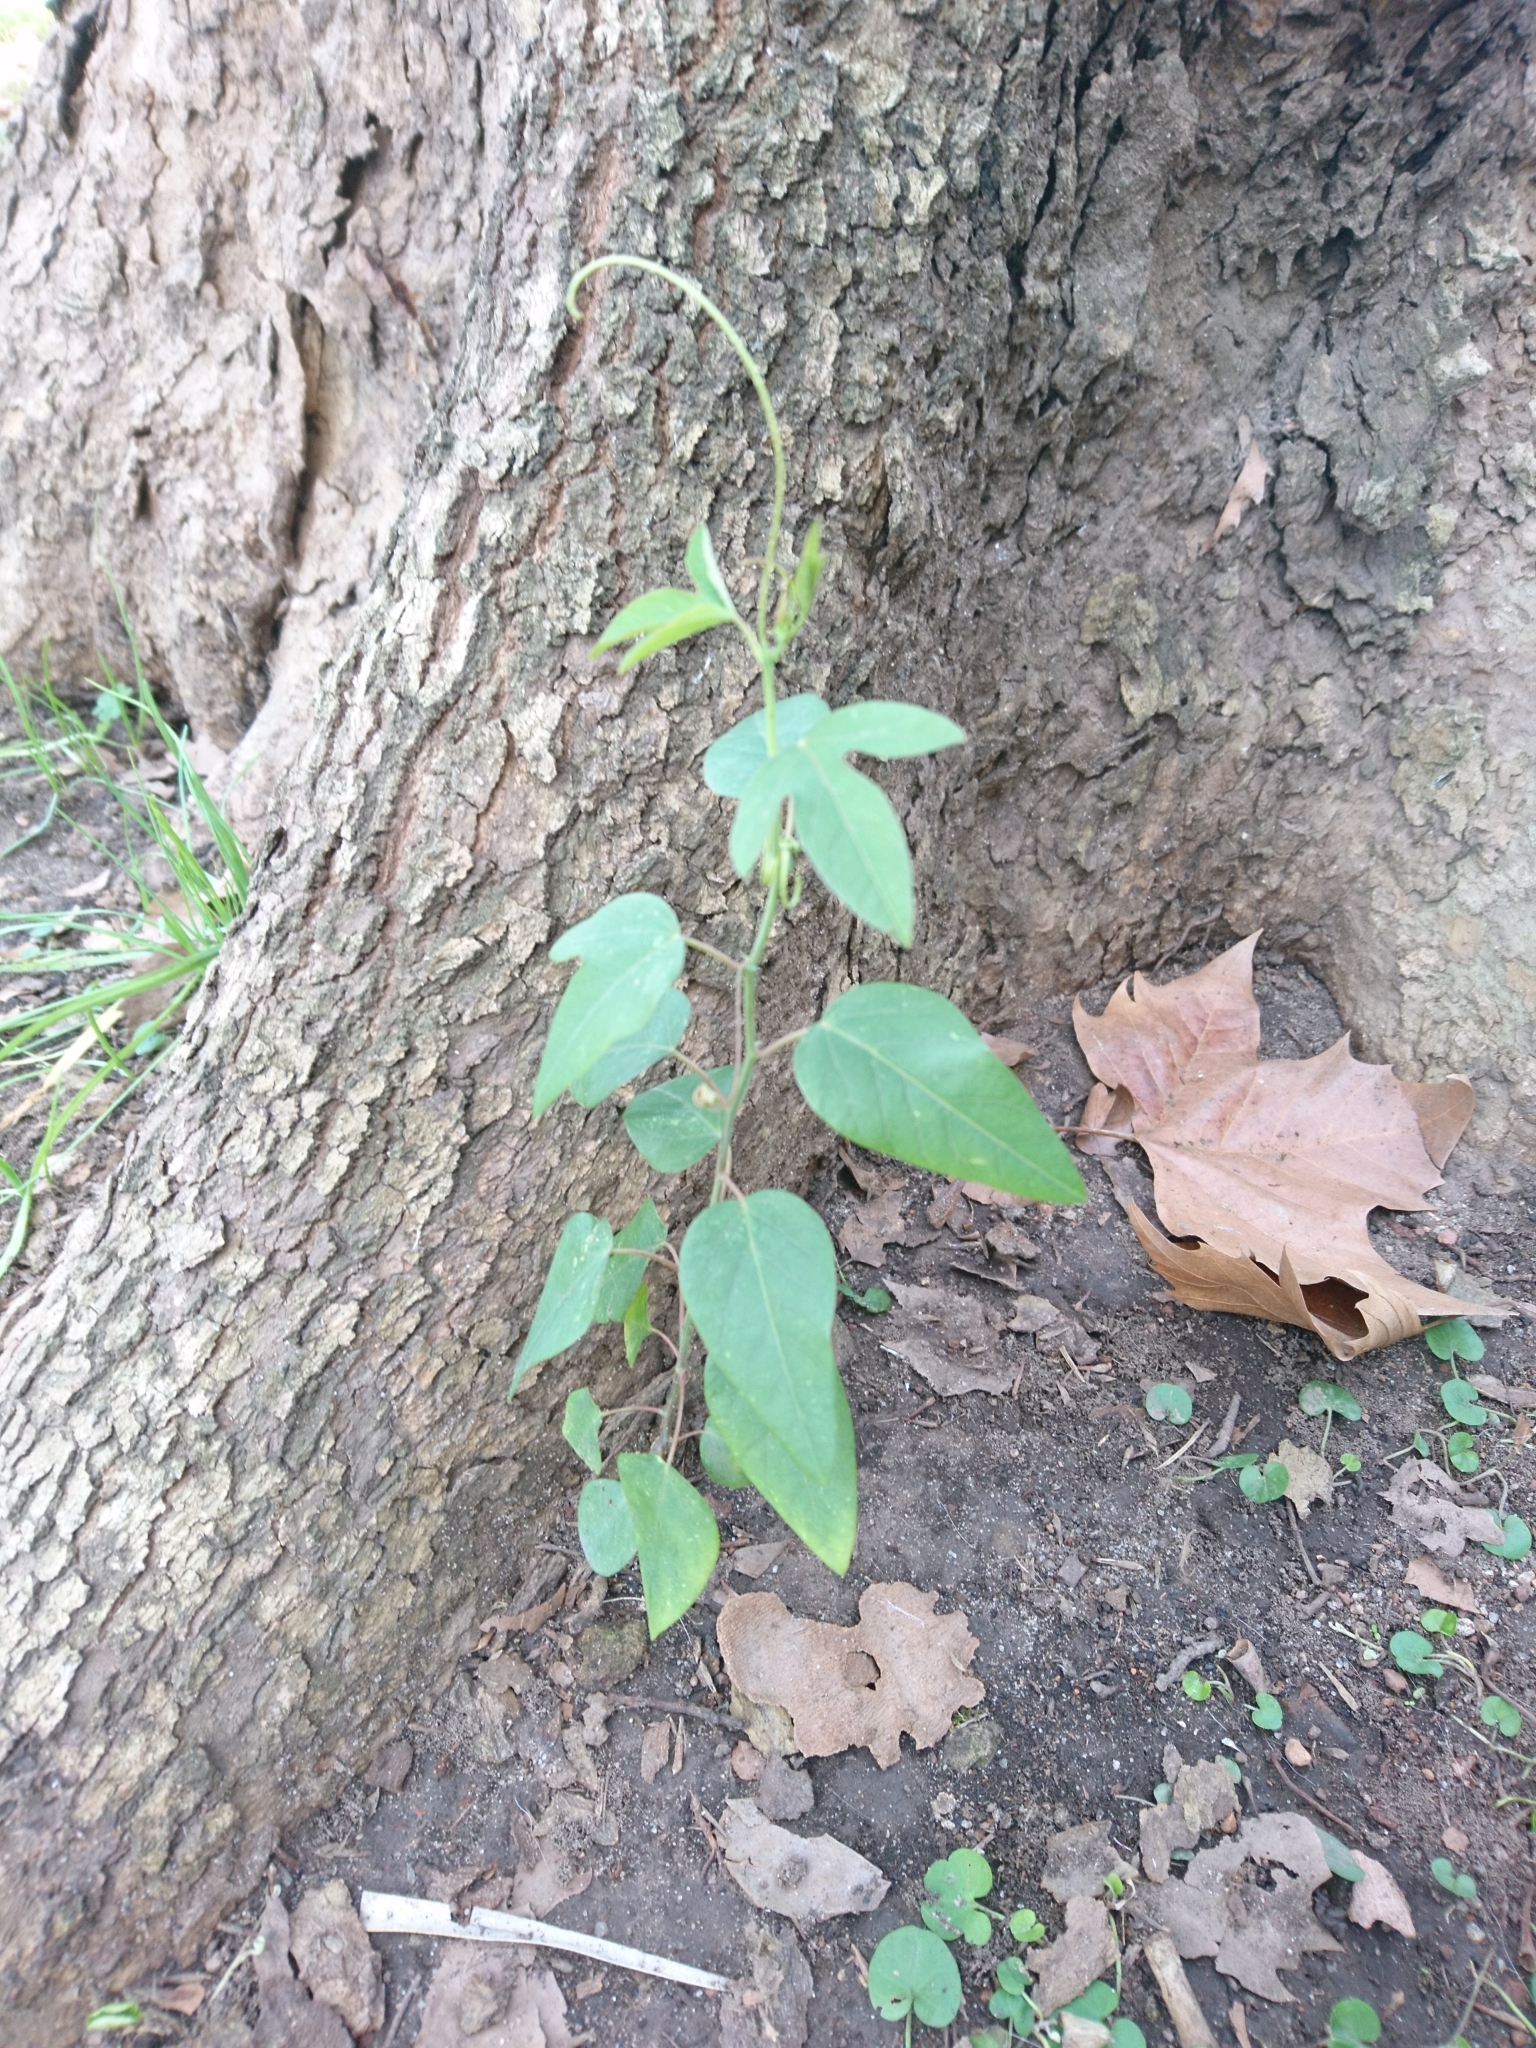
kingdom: Plantae
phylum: Tracheophyta
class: Magnoliopsida
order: Malpighiales
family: Passifloraceae
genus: Passiflora
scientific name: Passiflora caerulea
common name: Blue passionflower
